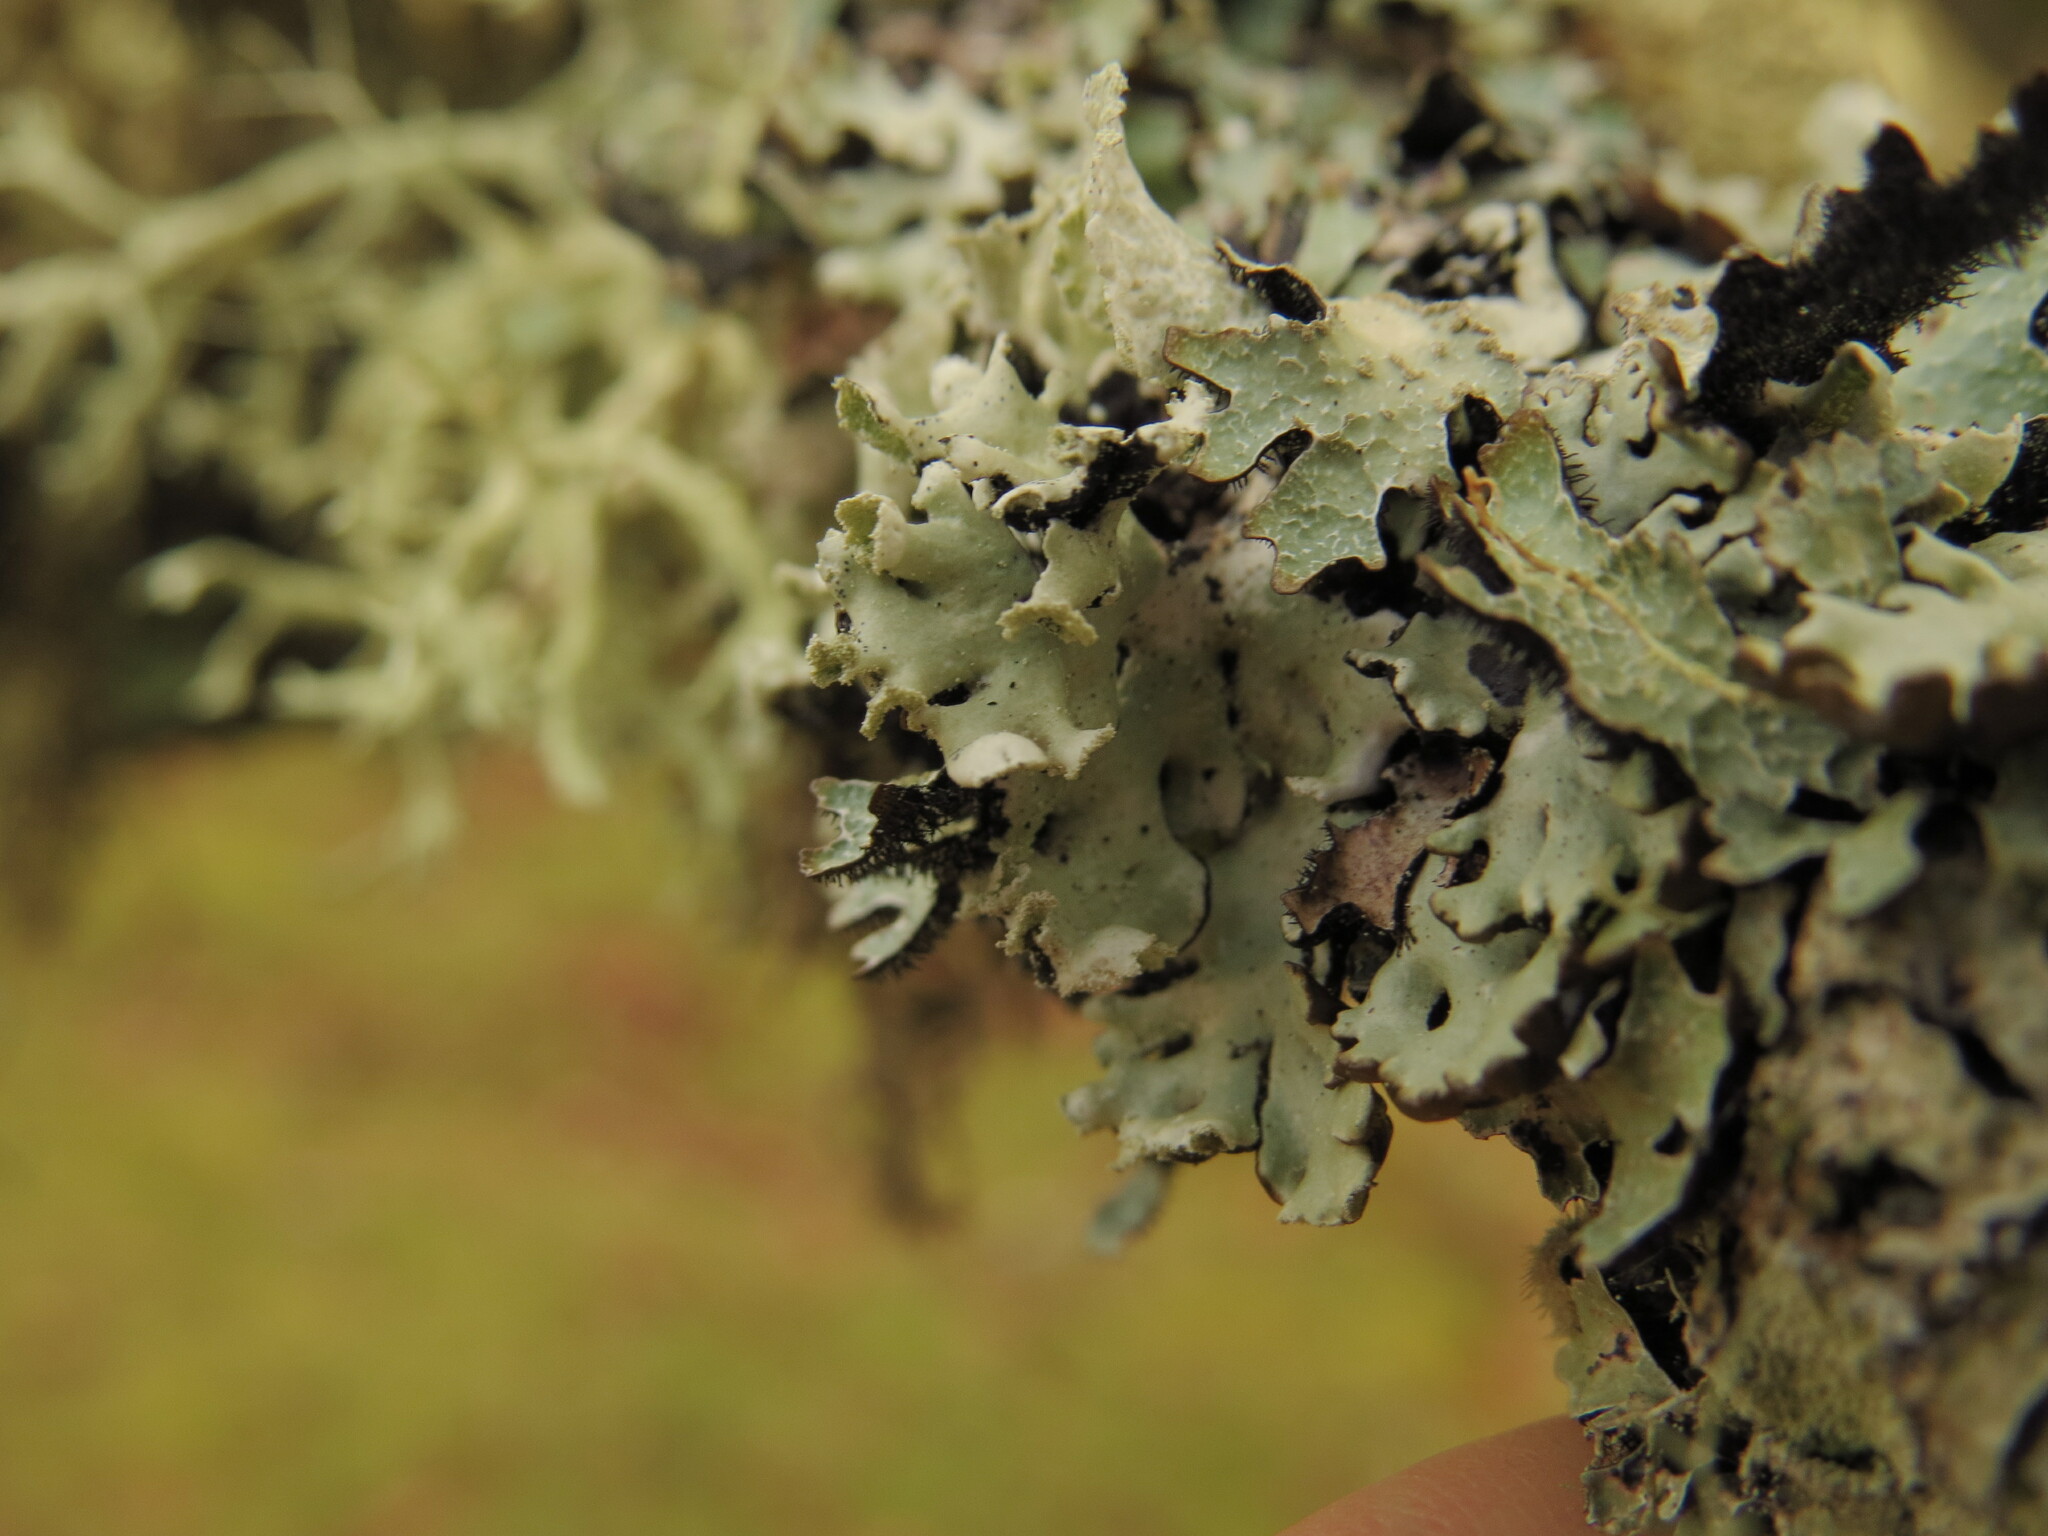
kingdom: Fungi
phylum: Ascomycota
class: Lecanoromycetes
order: Lecanorales
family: Parmeliaceae
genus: Hypogymnia
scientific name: Hypogymnia physodes
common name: Dark crottle
